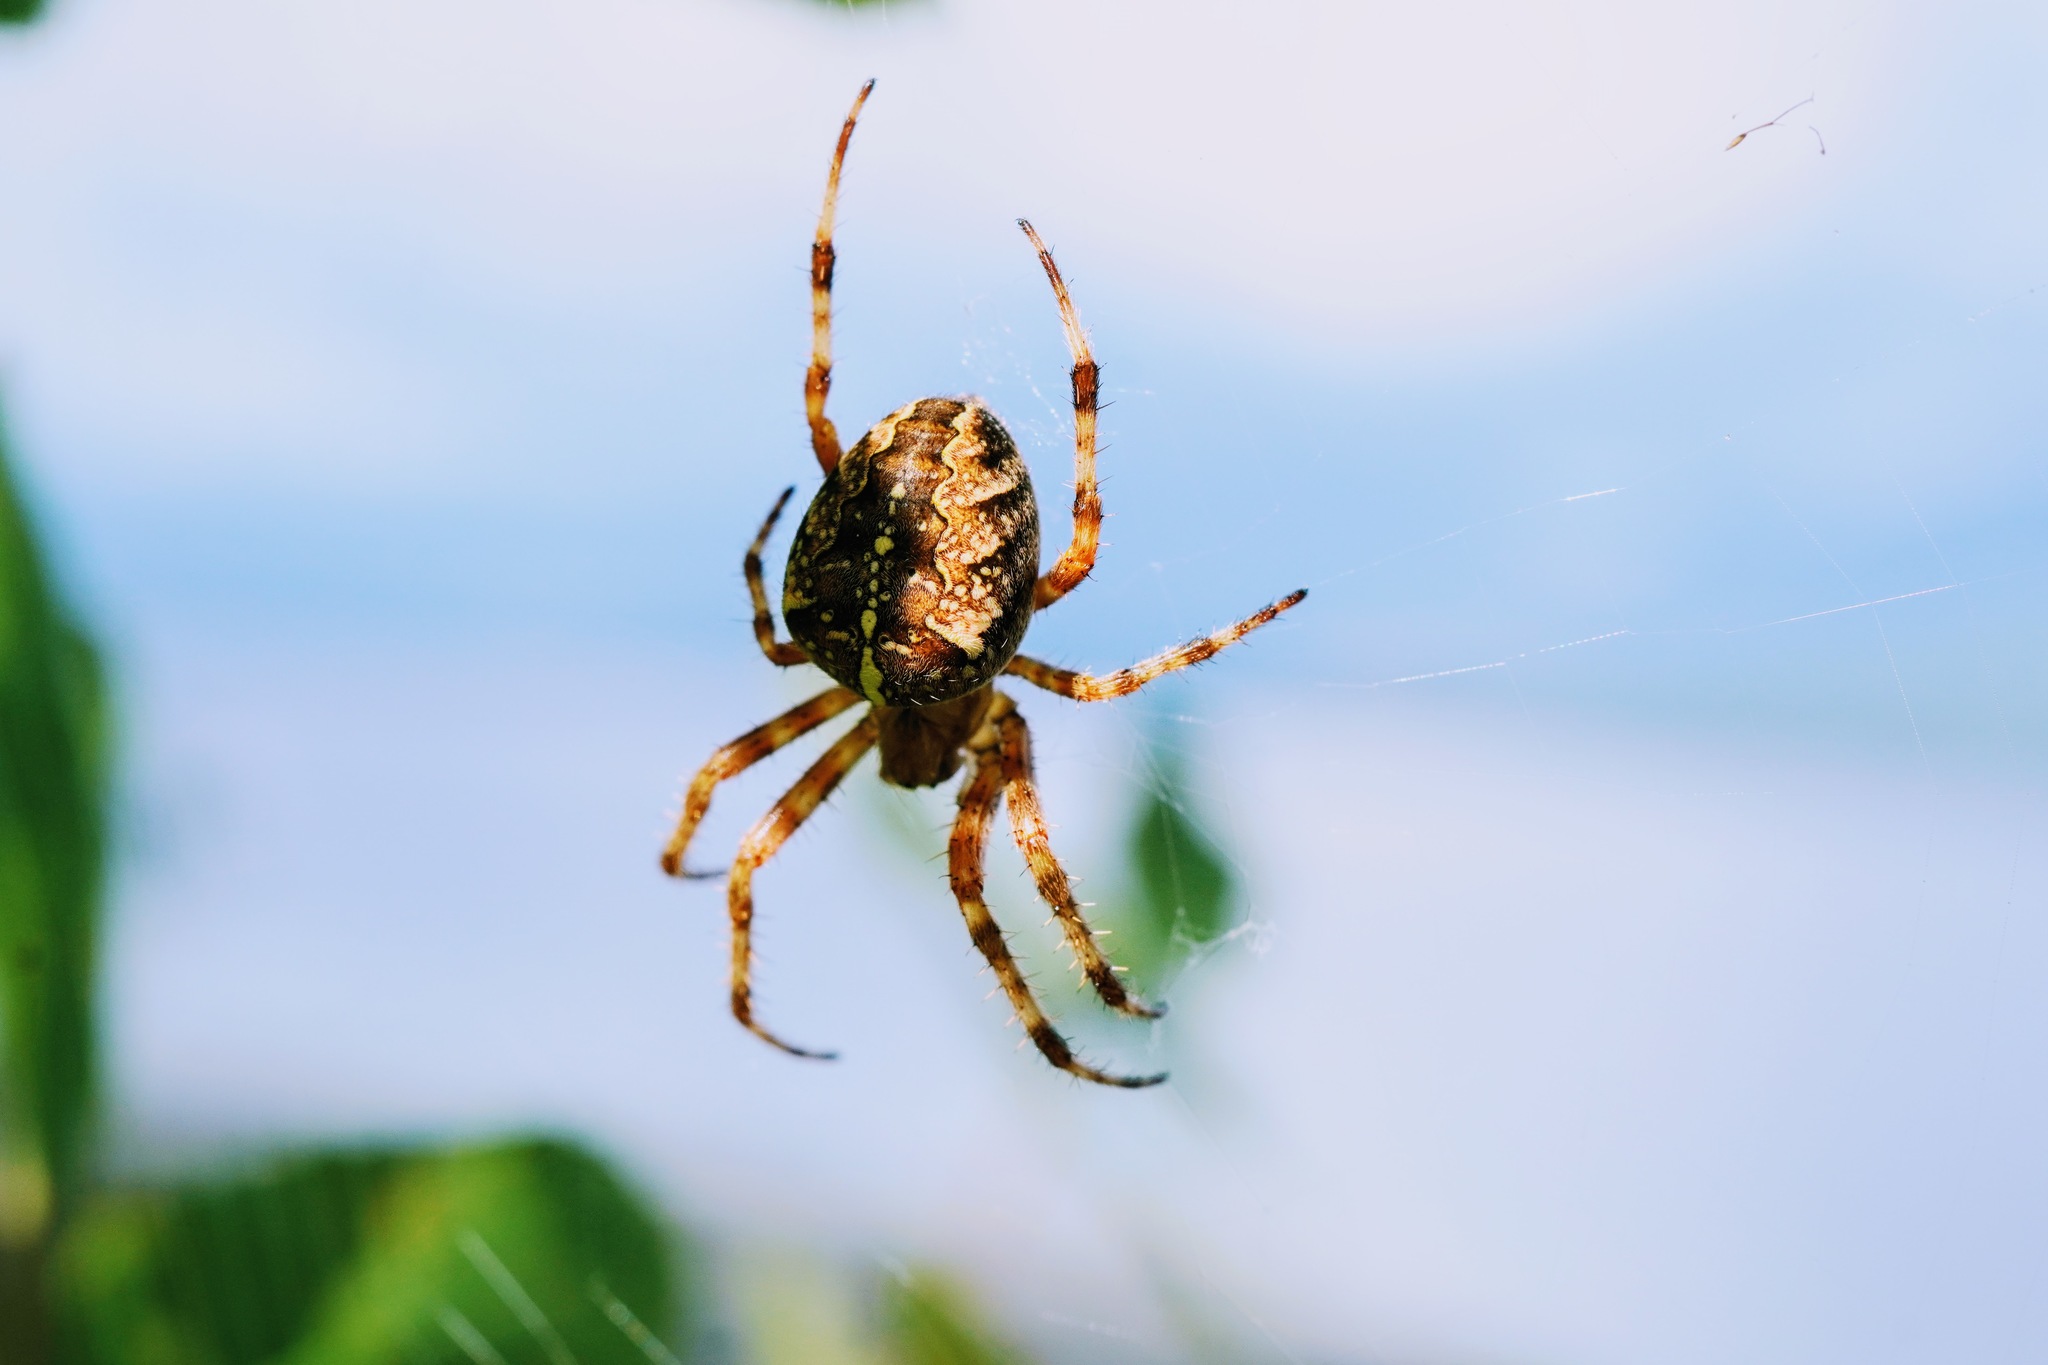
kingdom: Animalia
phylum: Arthropoda
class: Arachnida
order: Araneae
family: Araneidae
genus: Araneus
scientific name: Araneus diadematus
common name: Cross orbweaver
